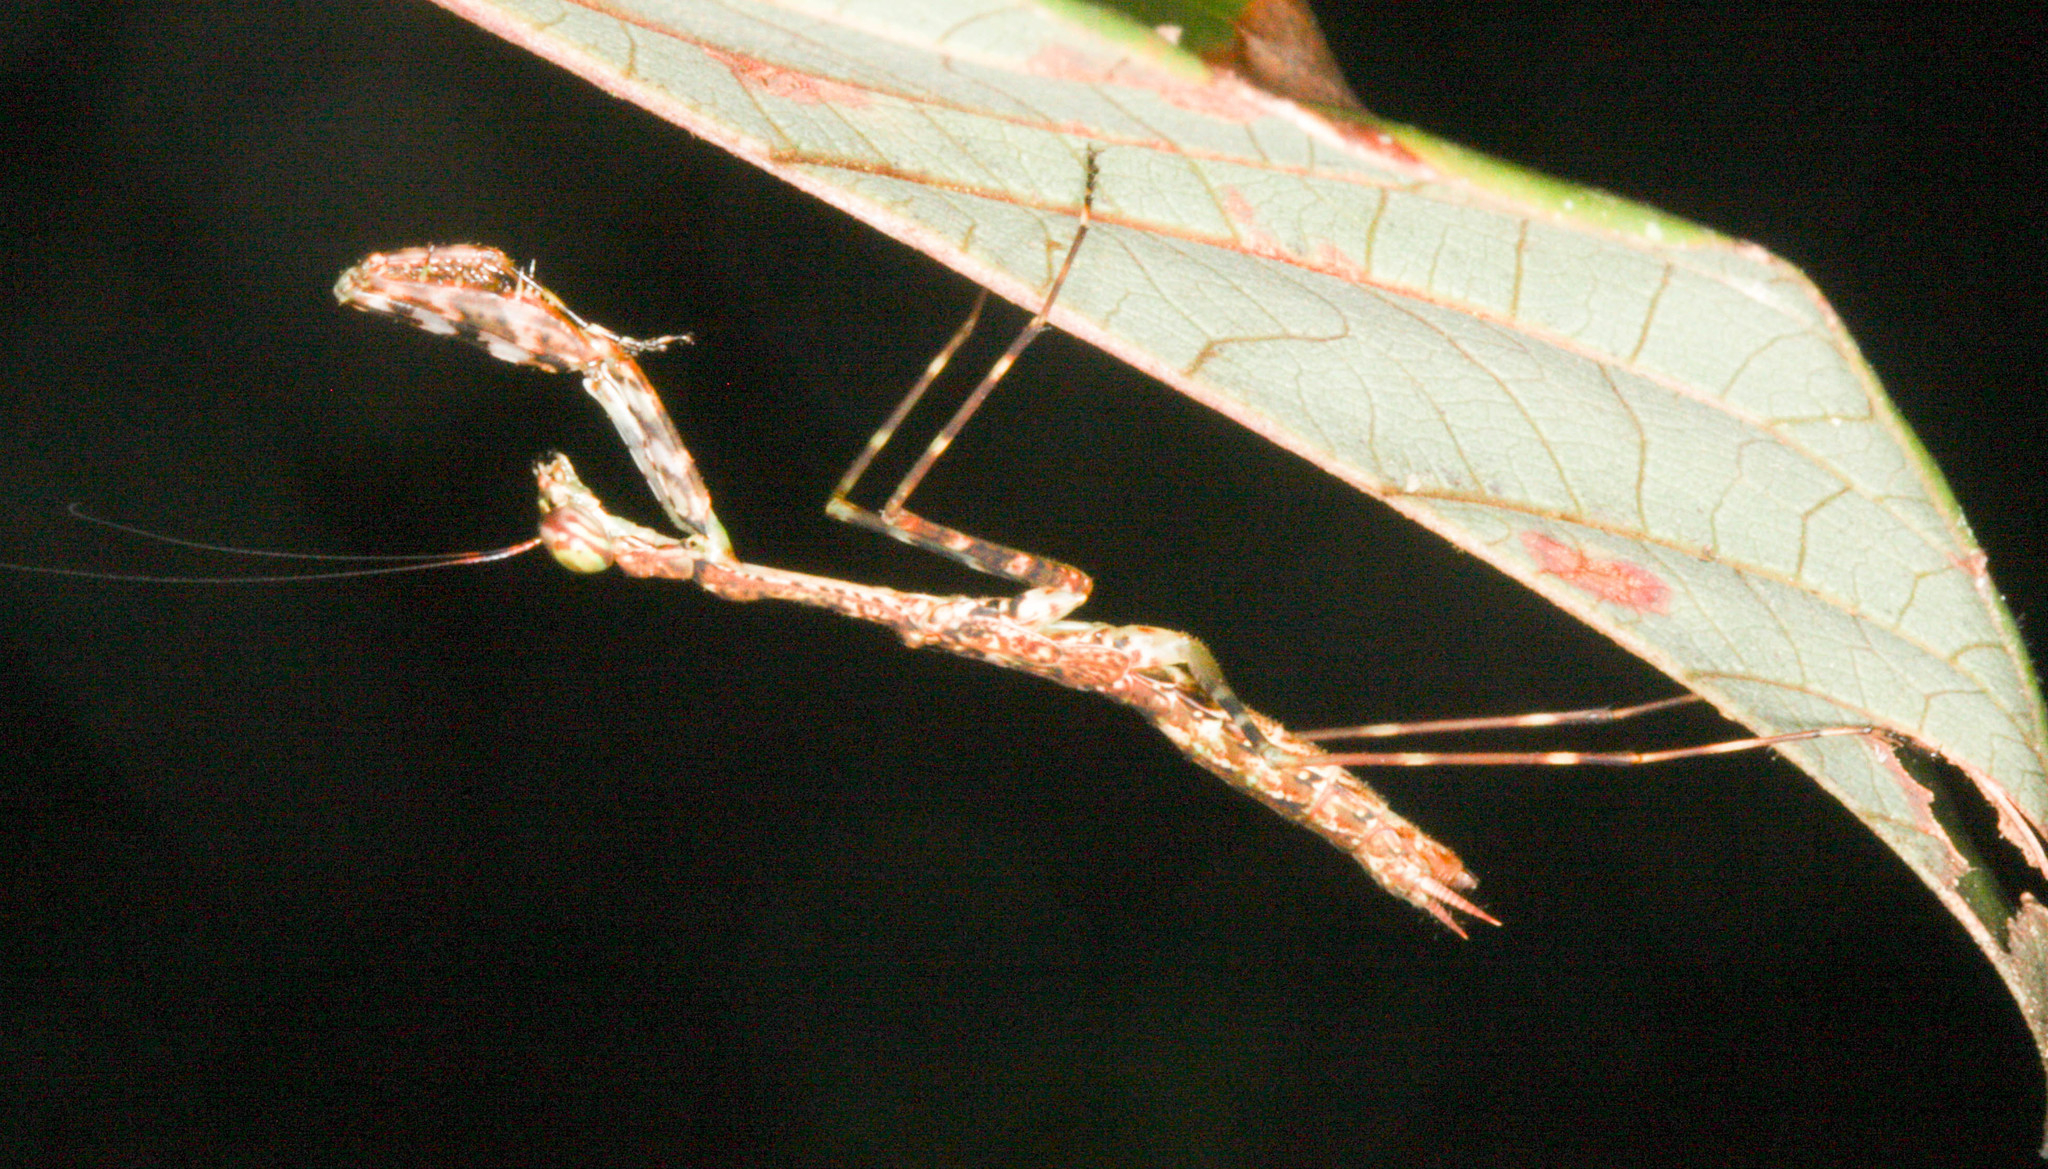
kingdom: Animalia
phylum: Arthropoda
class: Insecta
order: Mantodea
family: Majangidae
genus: Liturgusella
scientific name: Liturgusella malagassa
